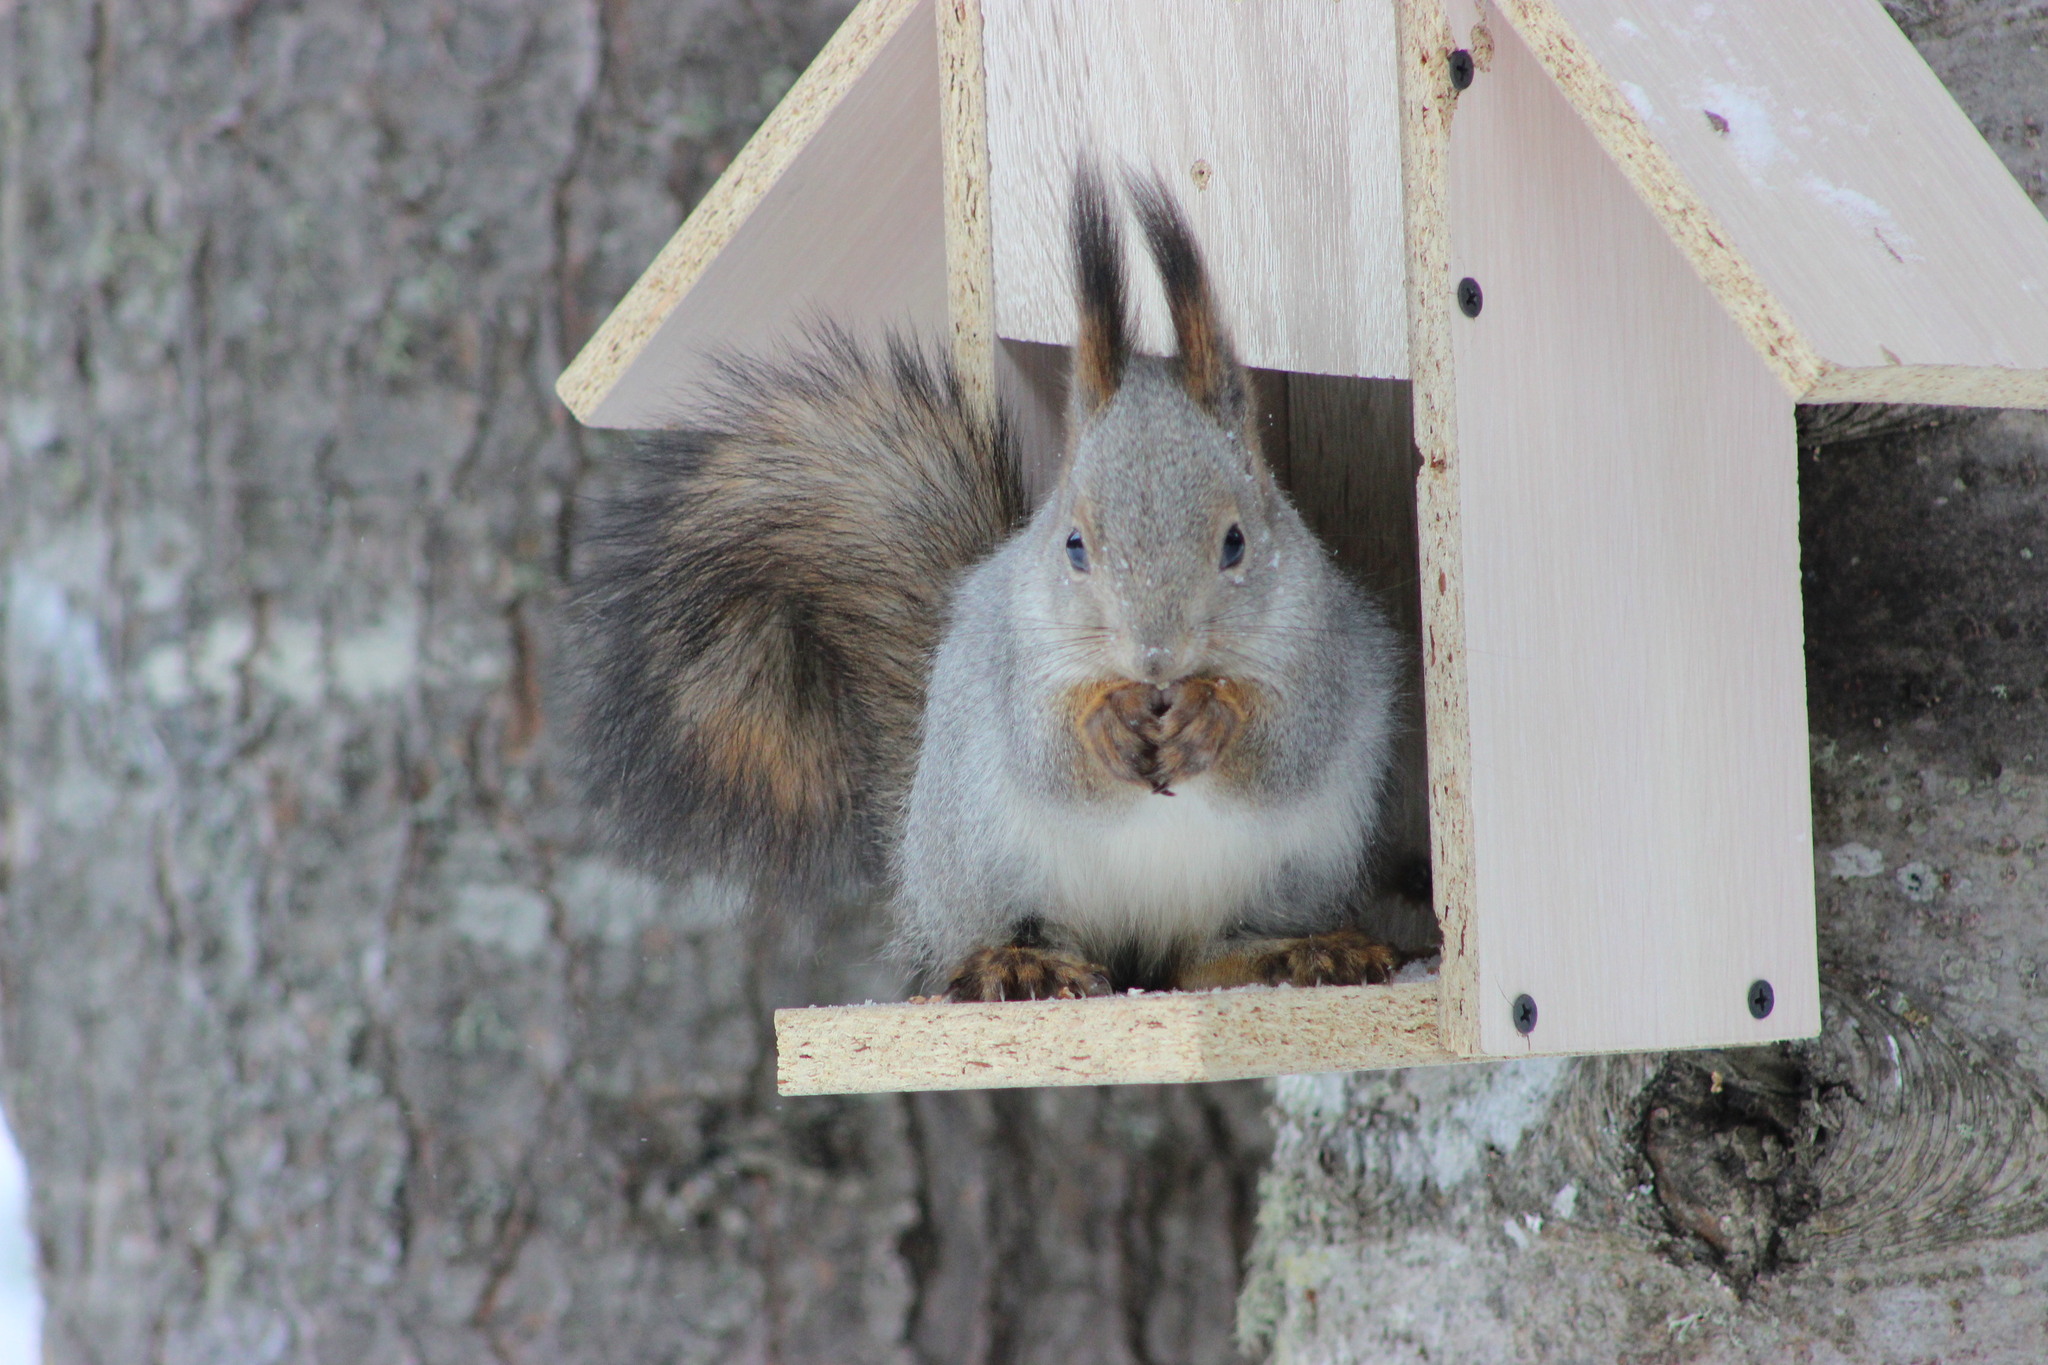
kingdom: Animalia
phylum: Chordata
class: Mammalia
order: Rodentia
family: Sciuridae
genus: Sciurus
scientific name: Sciurus vulgaris
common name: Eurasian red squirrel
